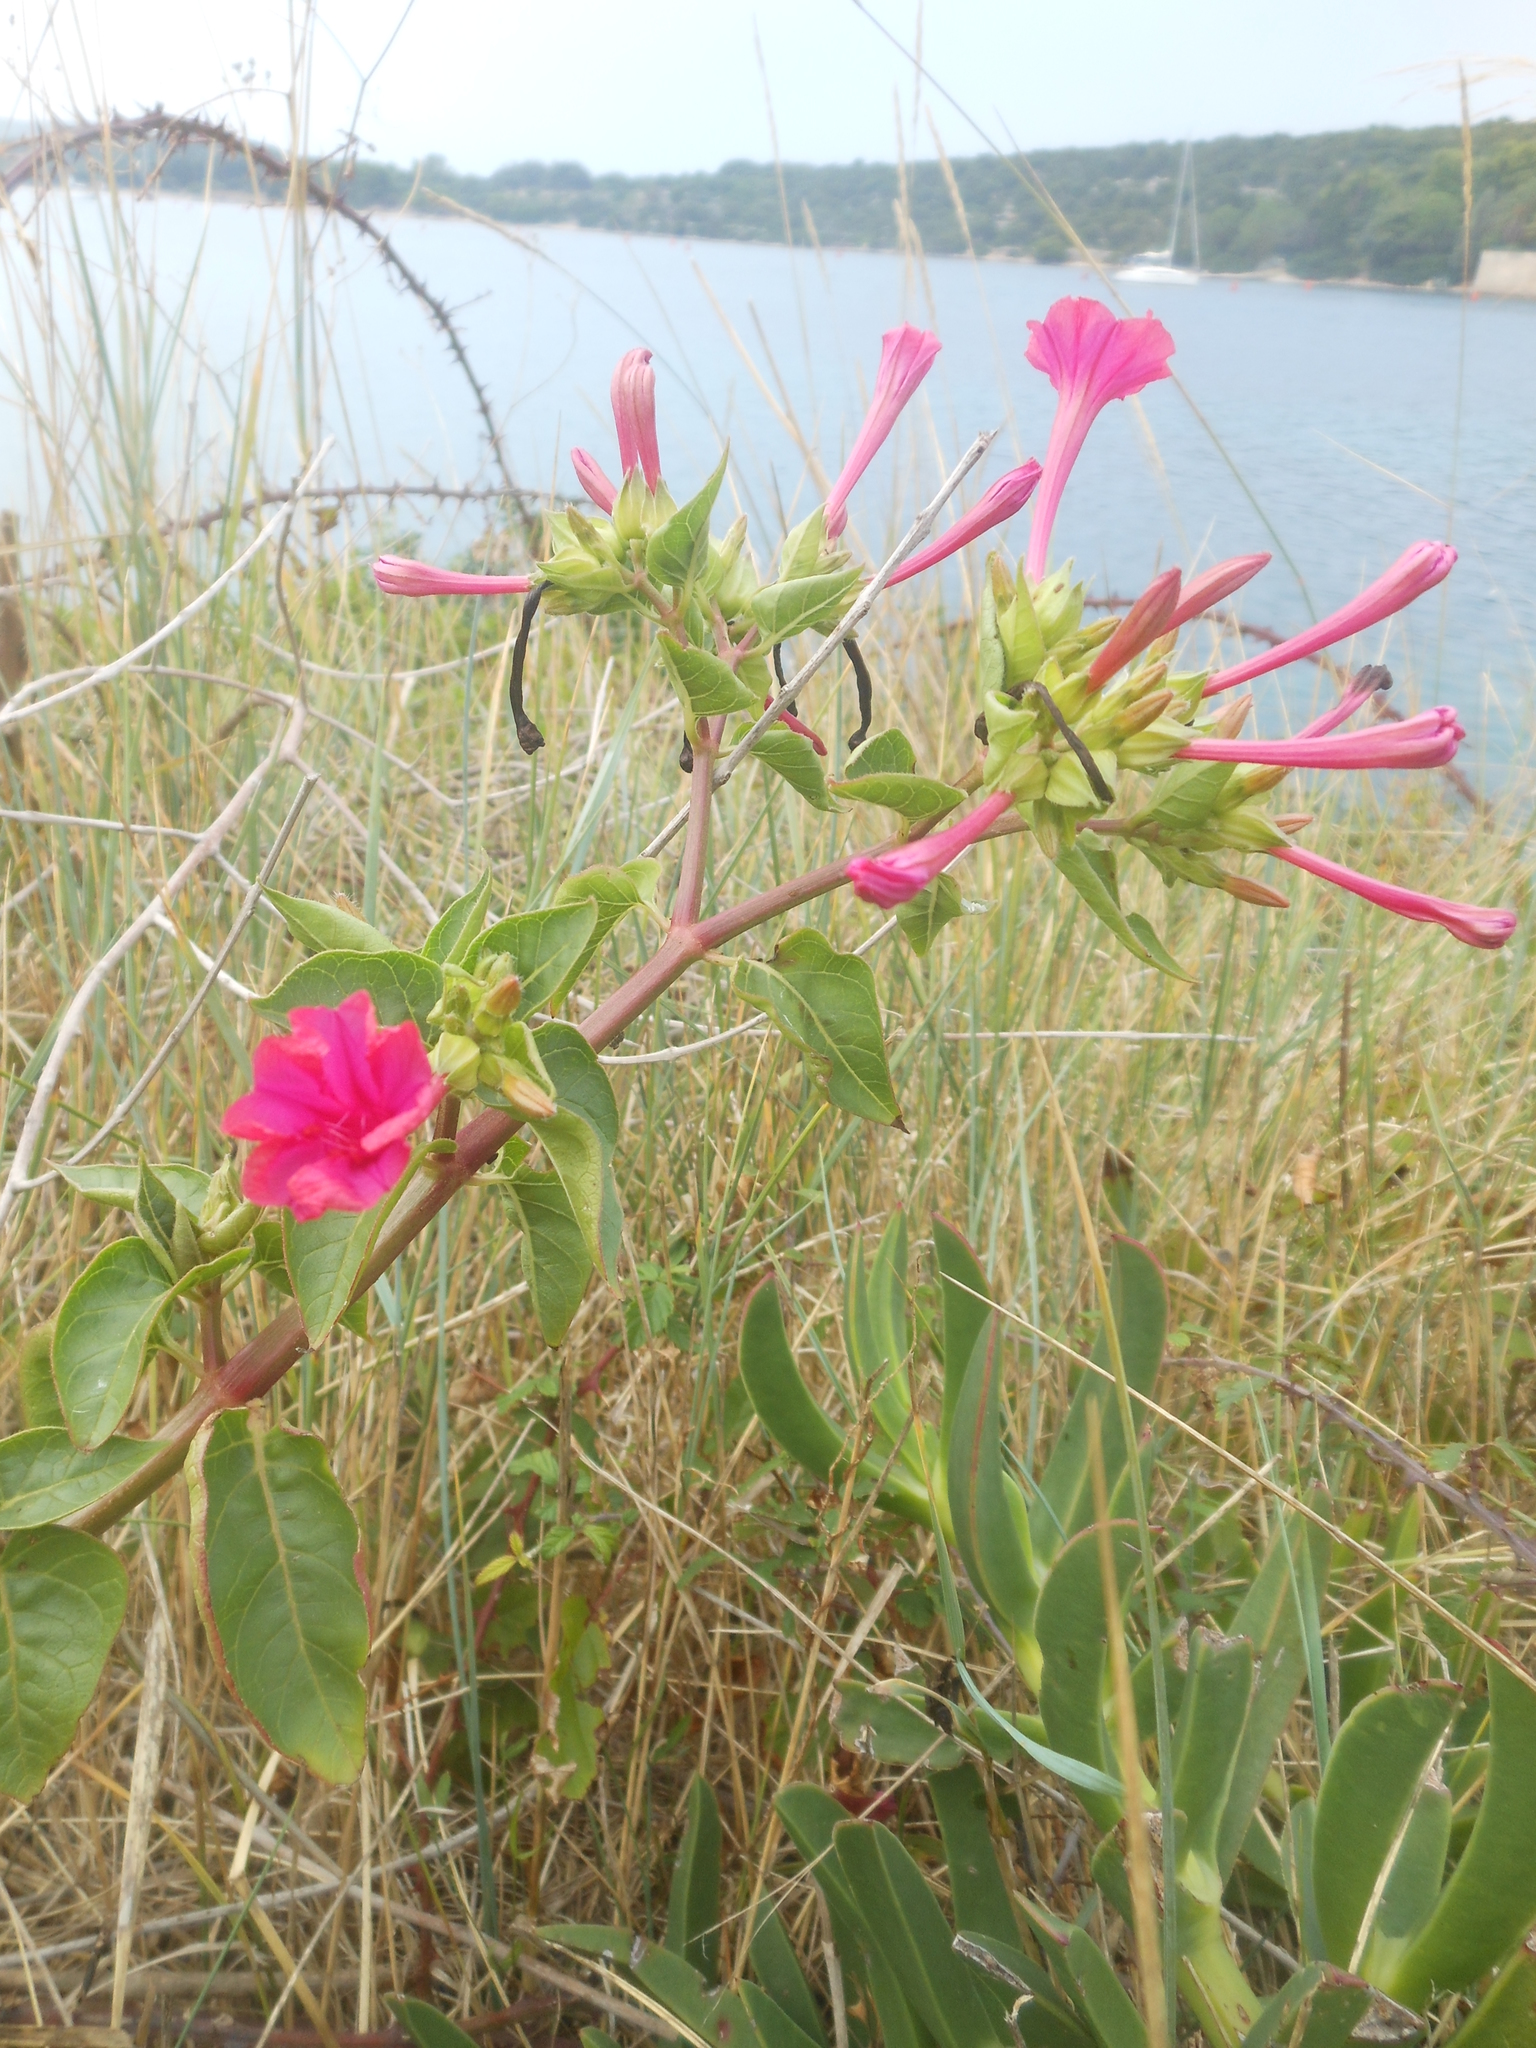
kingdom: Plantae
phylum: Tracheophyta
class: Magnoliopsida
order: Caryophyllales
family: Nyctaginaceae
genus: Mirabilis
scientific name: Mirabilis jalapa
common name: Marvel-of-peru
